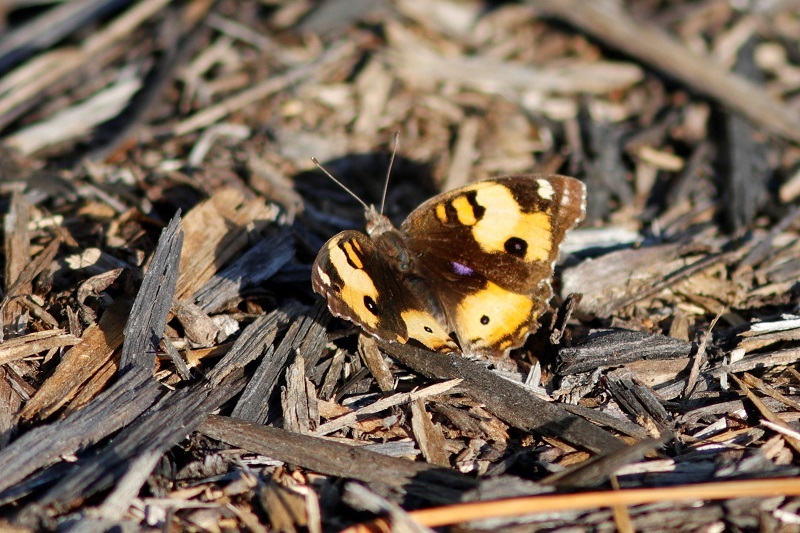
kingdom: Animalia
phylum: Arthropoda
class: Insecta
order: Lepidoptera
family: Nymphalidae
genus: Junonia
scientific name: Junonia hierta
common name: Yellow pansy
